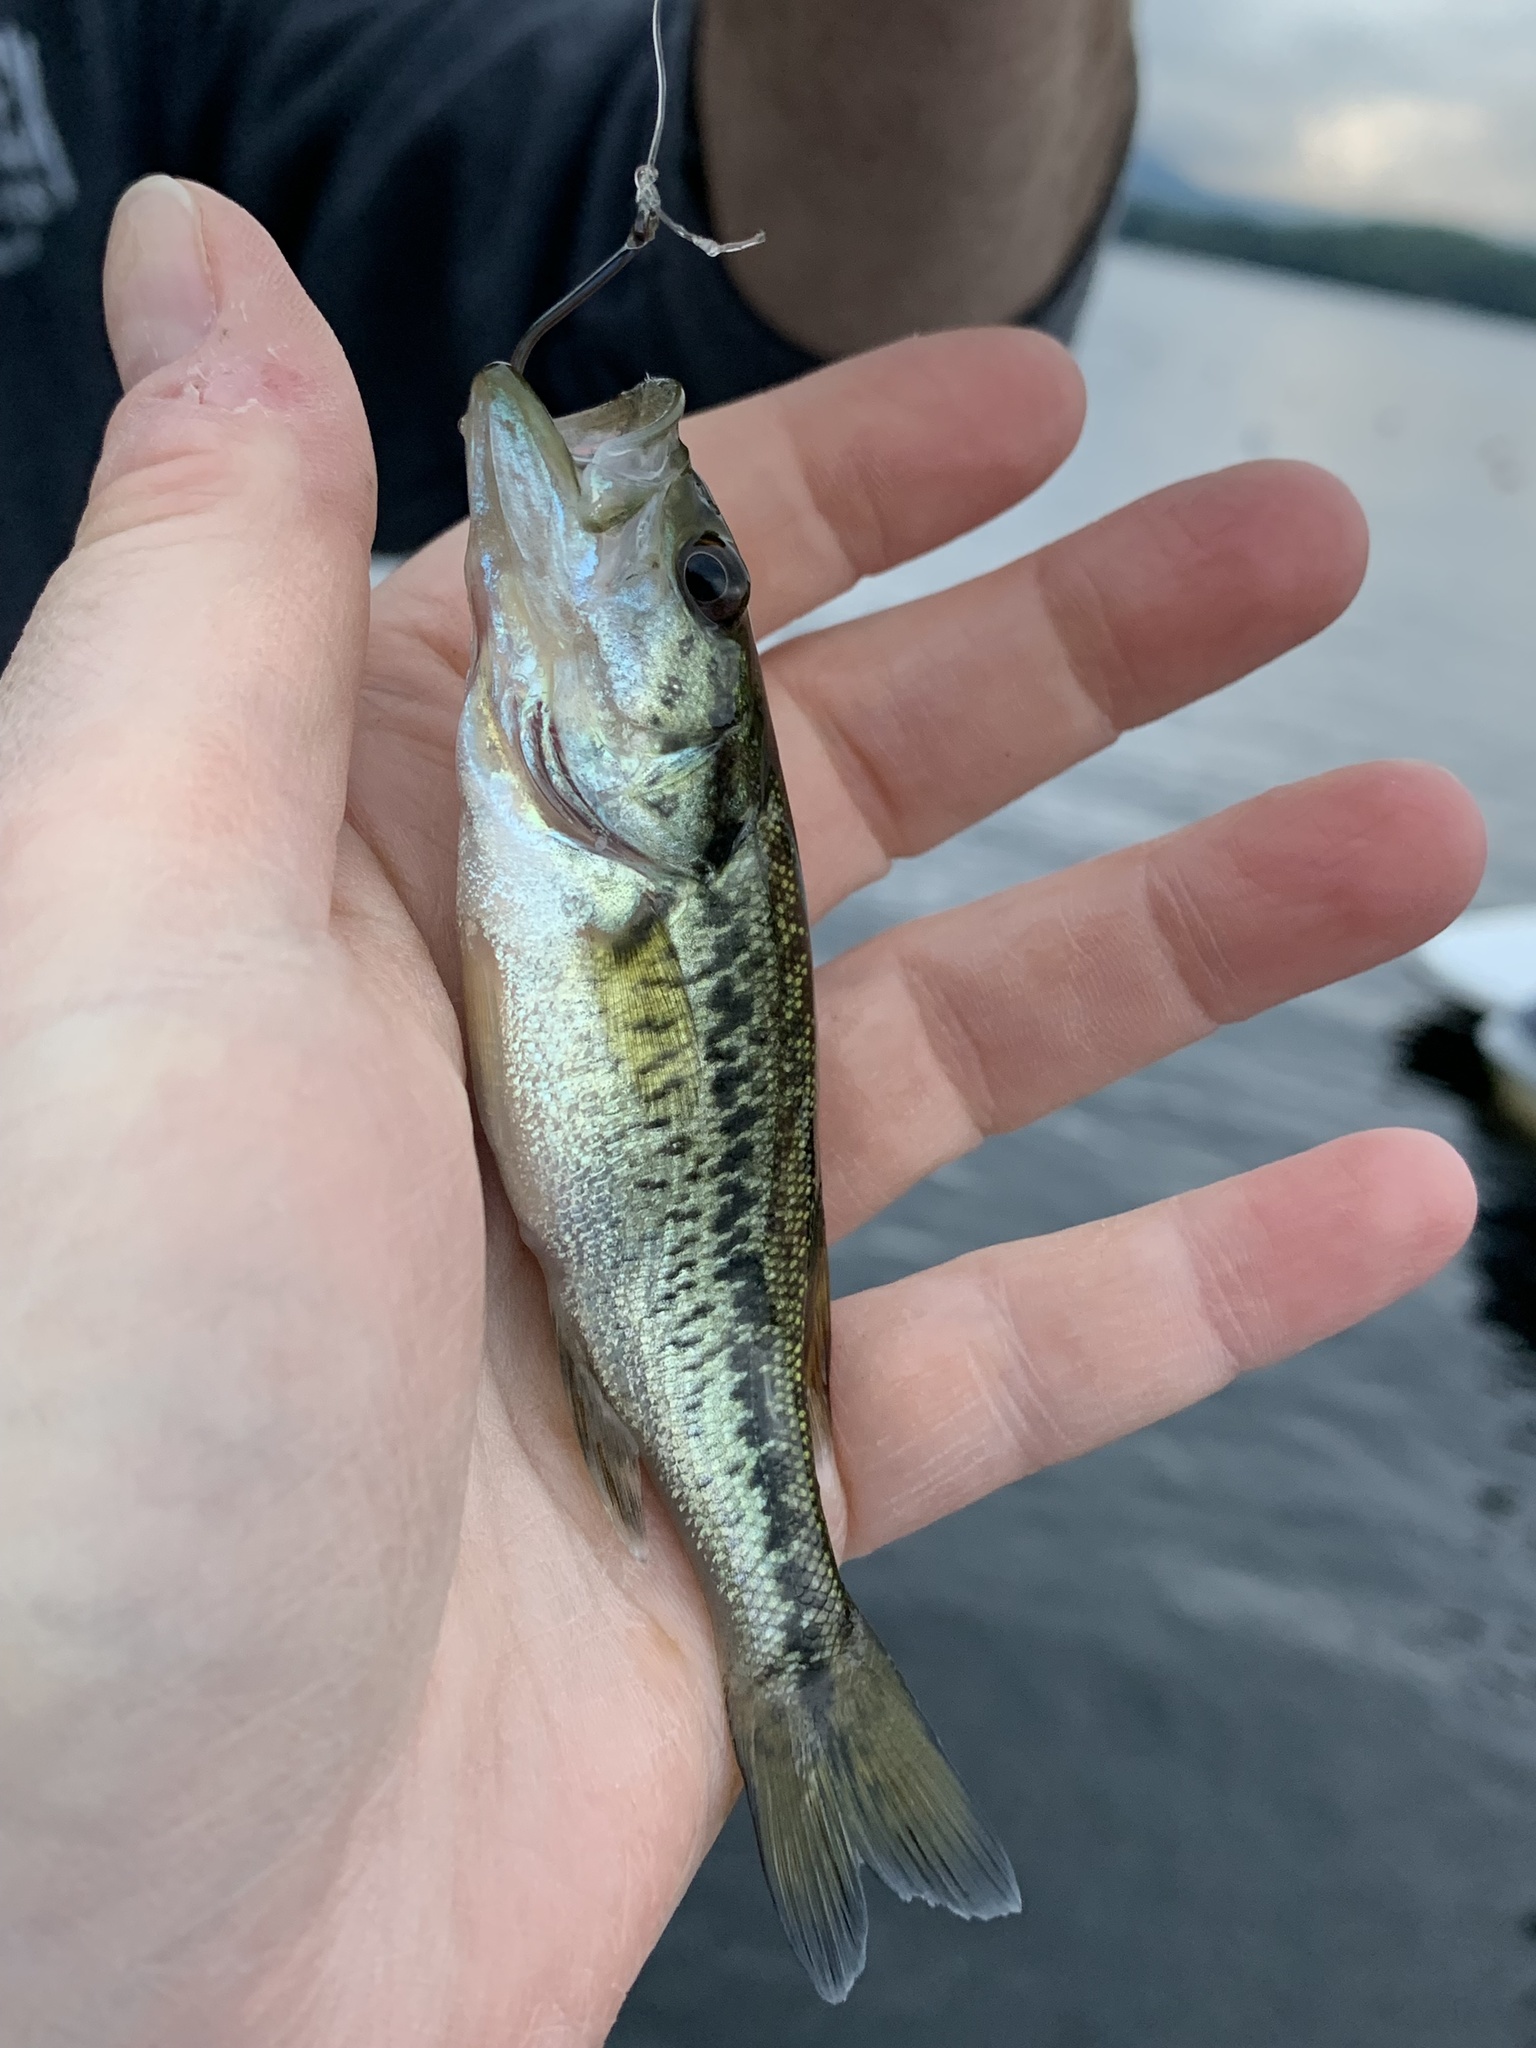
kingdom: Animalia
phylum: Chordata
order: Perciformes
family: Centrarchidae
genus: Micropterus
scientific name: Micropterus
